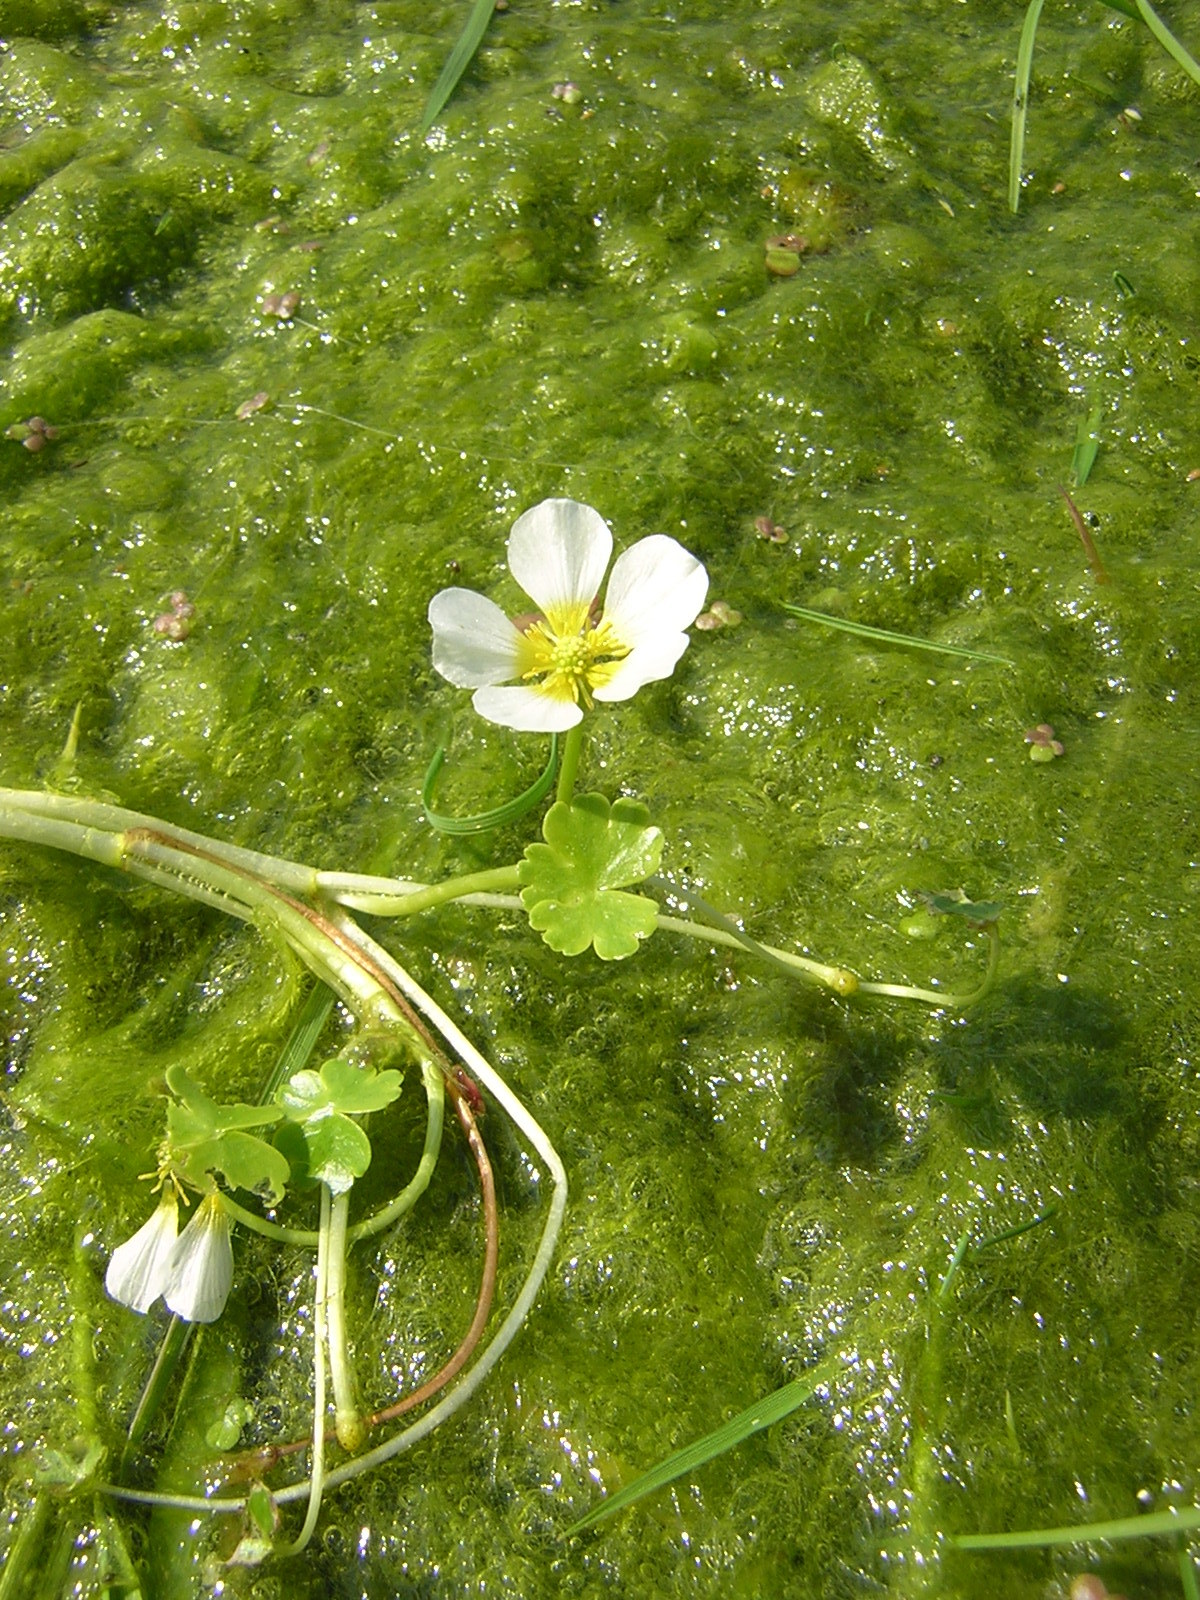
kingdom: Plantae
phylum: Tracheophyta
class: Magnoliopsida
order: Ranunculales
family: Ranunculaceae
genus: Ranunculus
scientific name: Ranunculus aquatilis
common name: Common water-crowfoot
